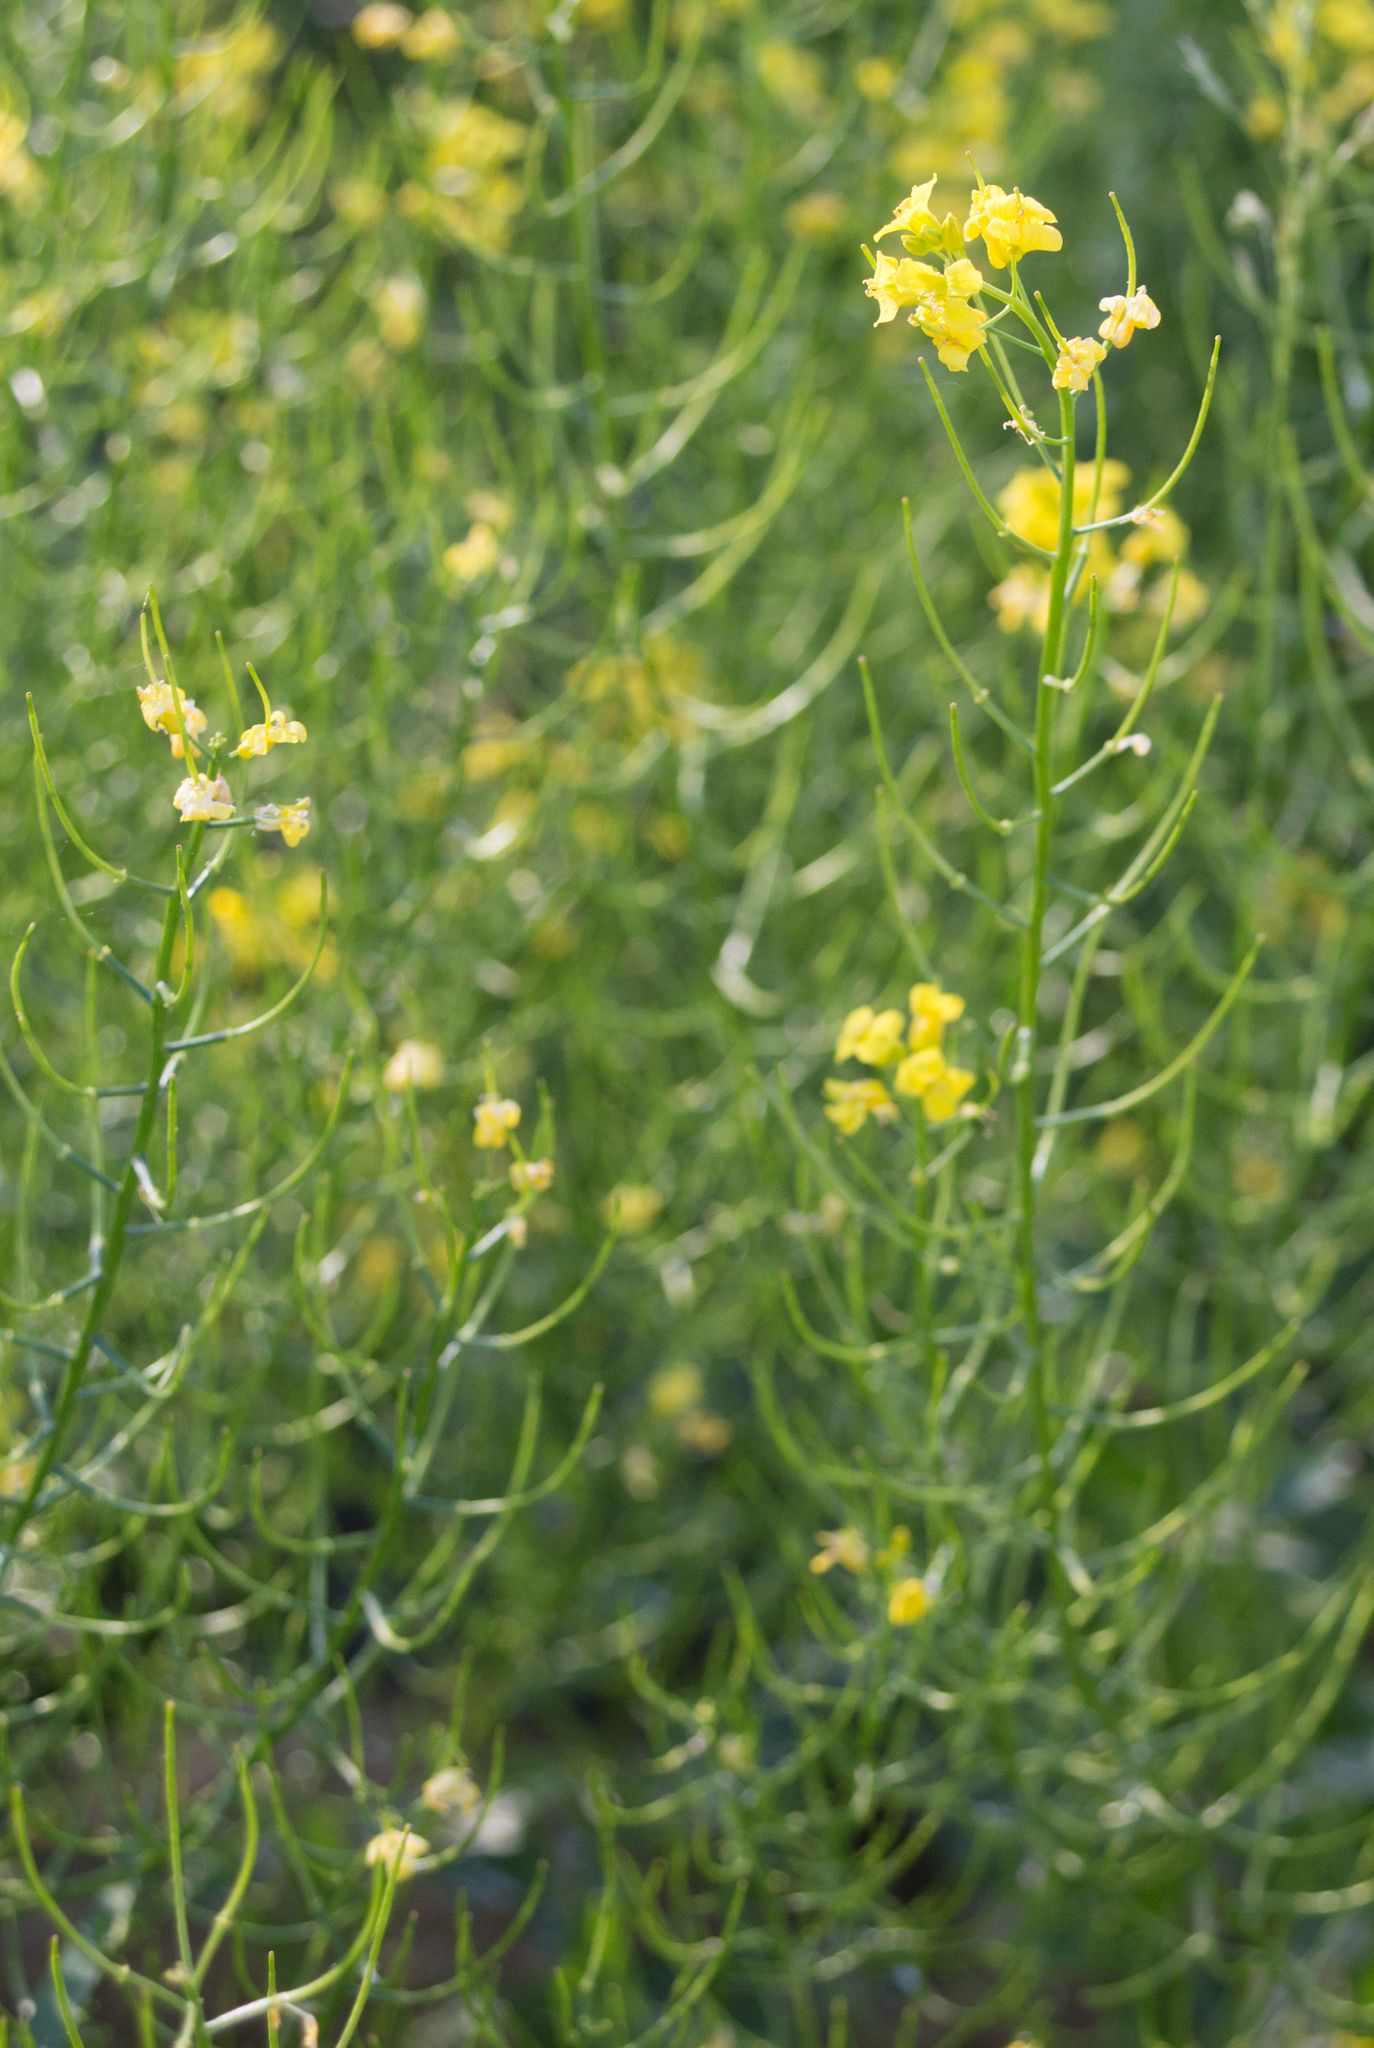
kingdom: Plantae
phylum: Tracheophyta
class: Magnoliopsida
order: Brassicales
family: Brassicaceae
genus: Barbarea
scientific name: Barbarea vulgaris
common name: Cressy-greens
